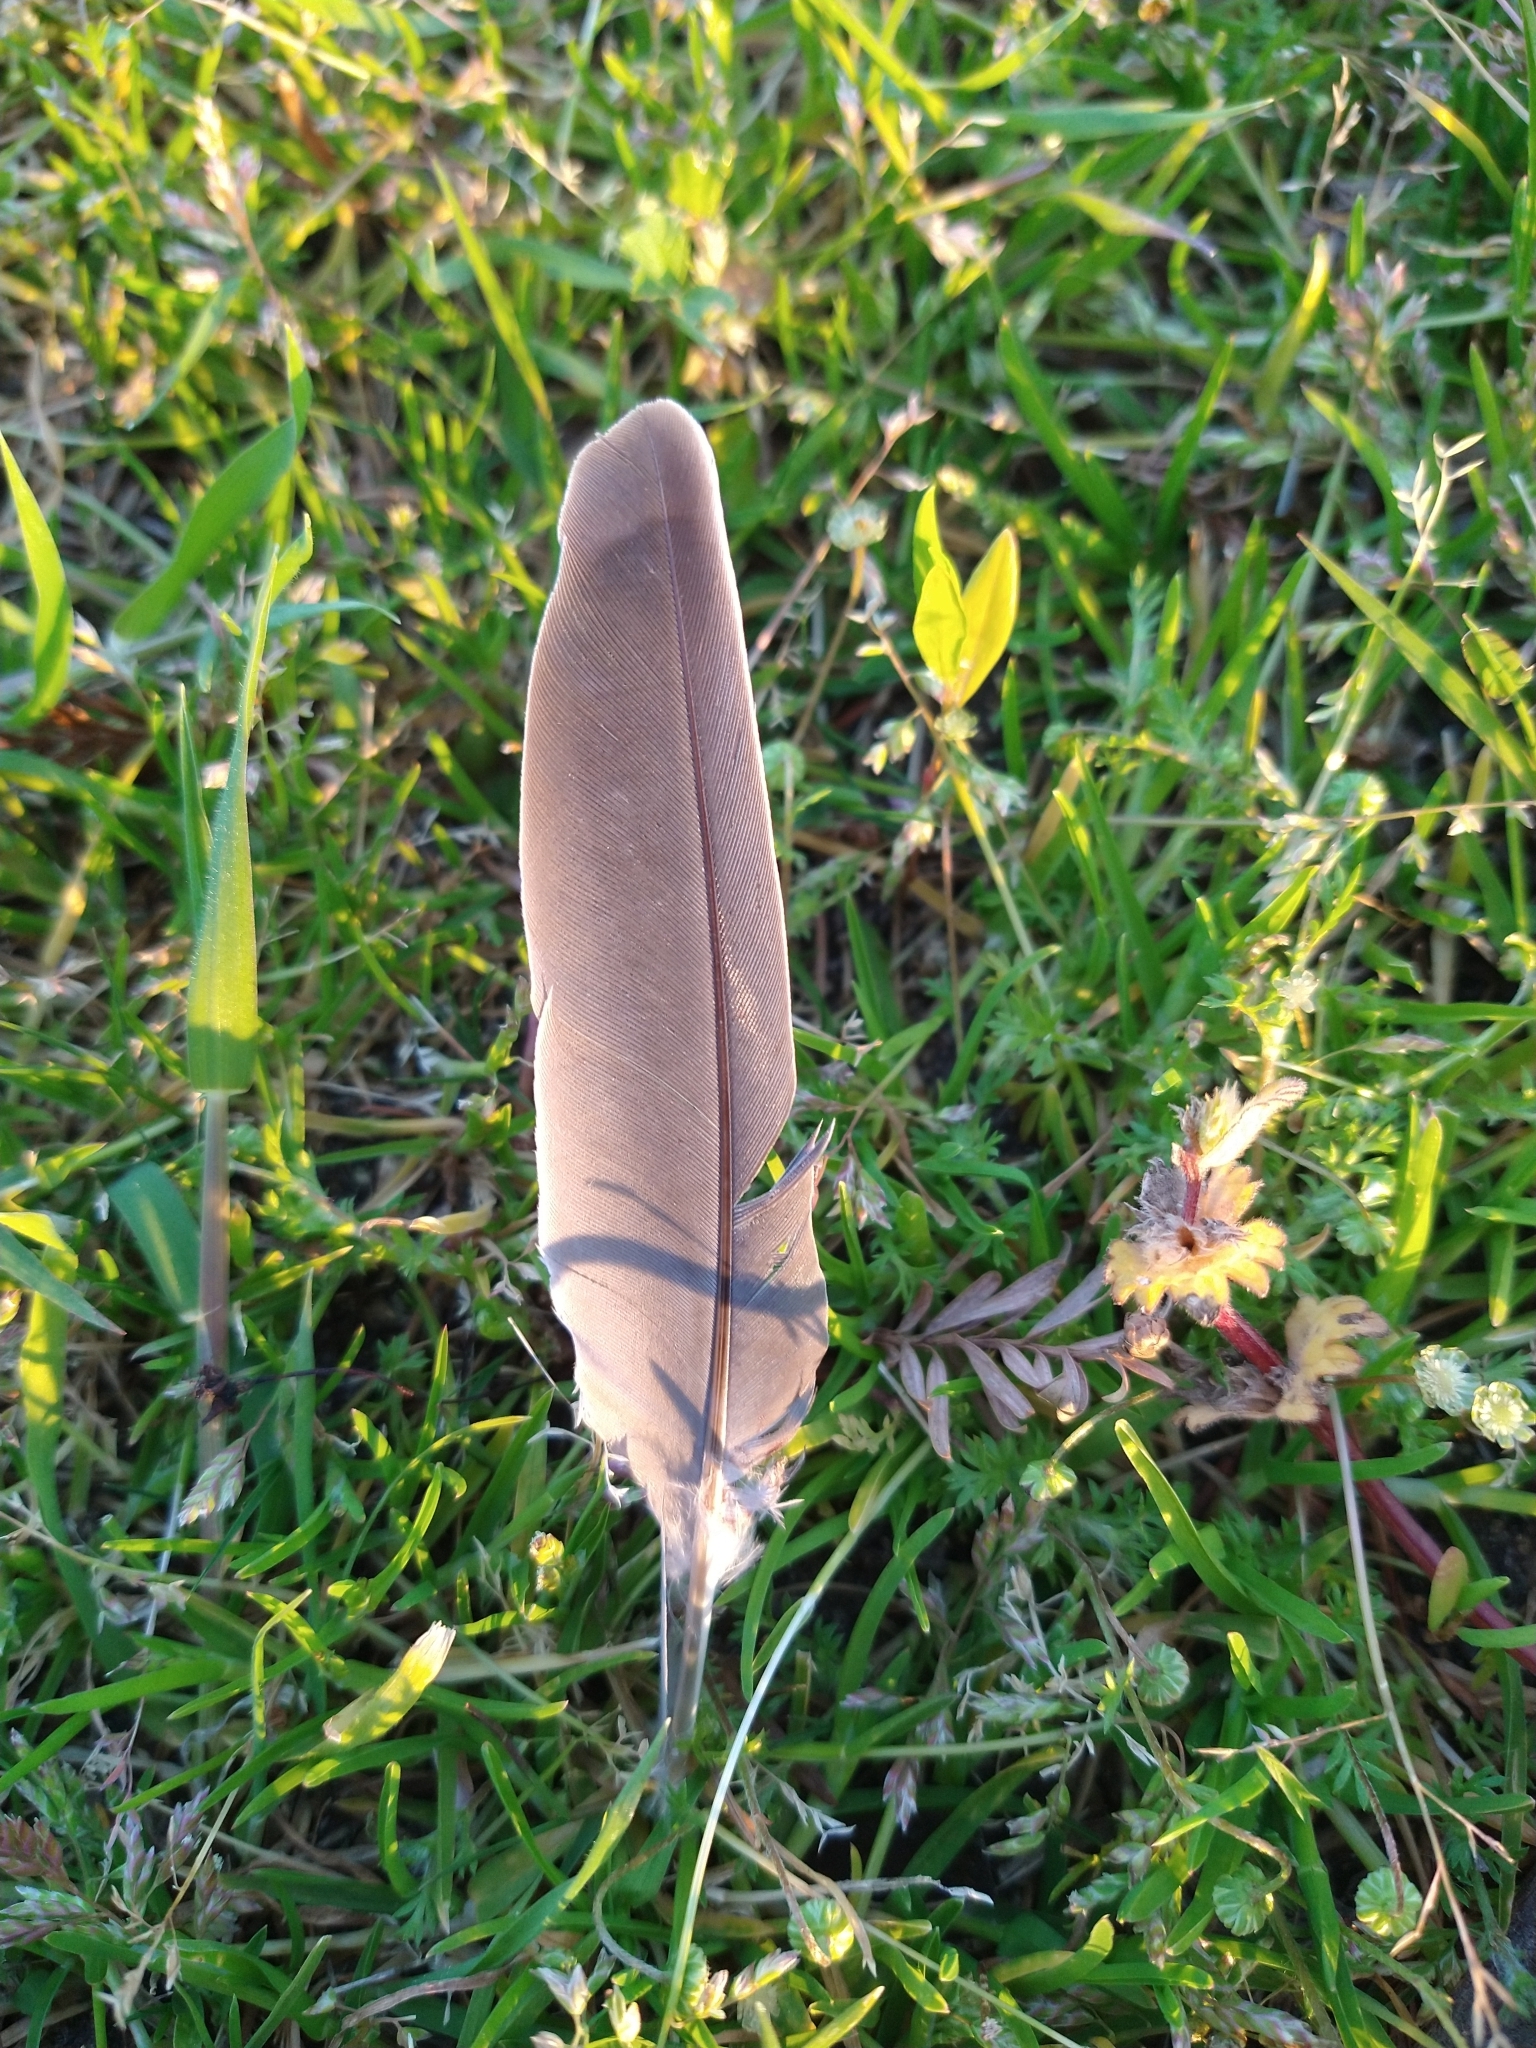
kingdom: Animalia
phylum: Chordata
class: Aves
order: Columbiformes
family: Columbidae
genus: Zenaida
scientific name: Zenaida macroura
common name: Mourning dove
